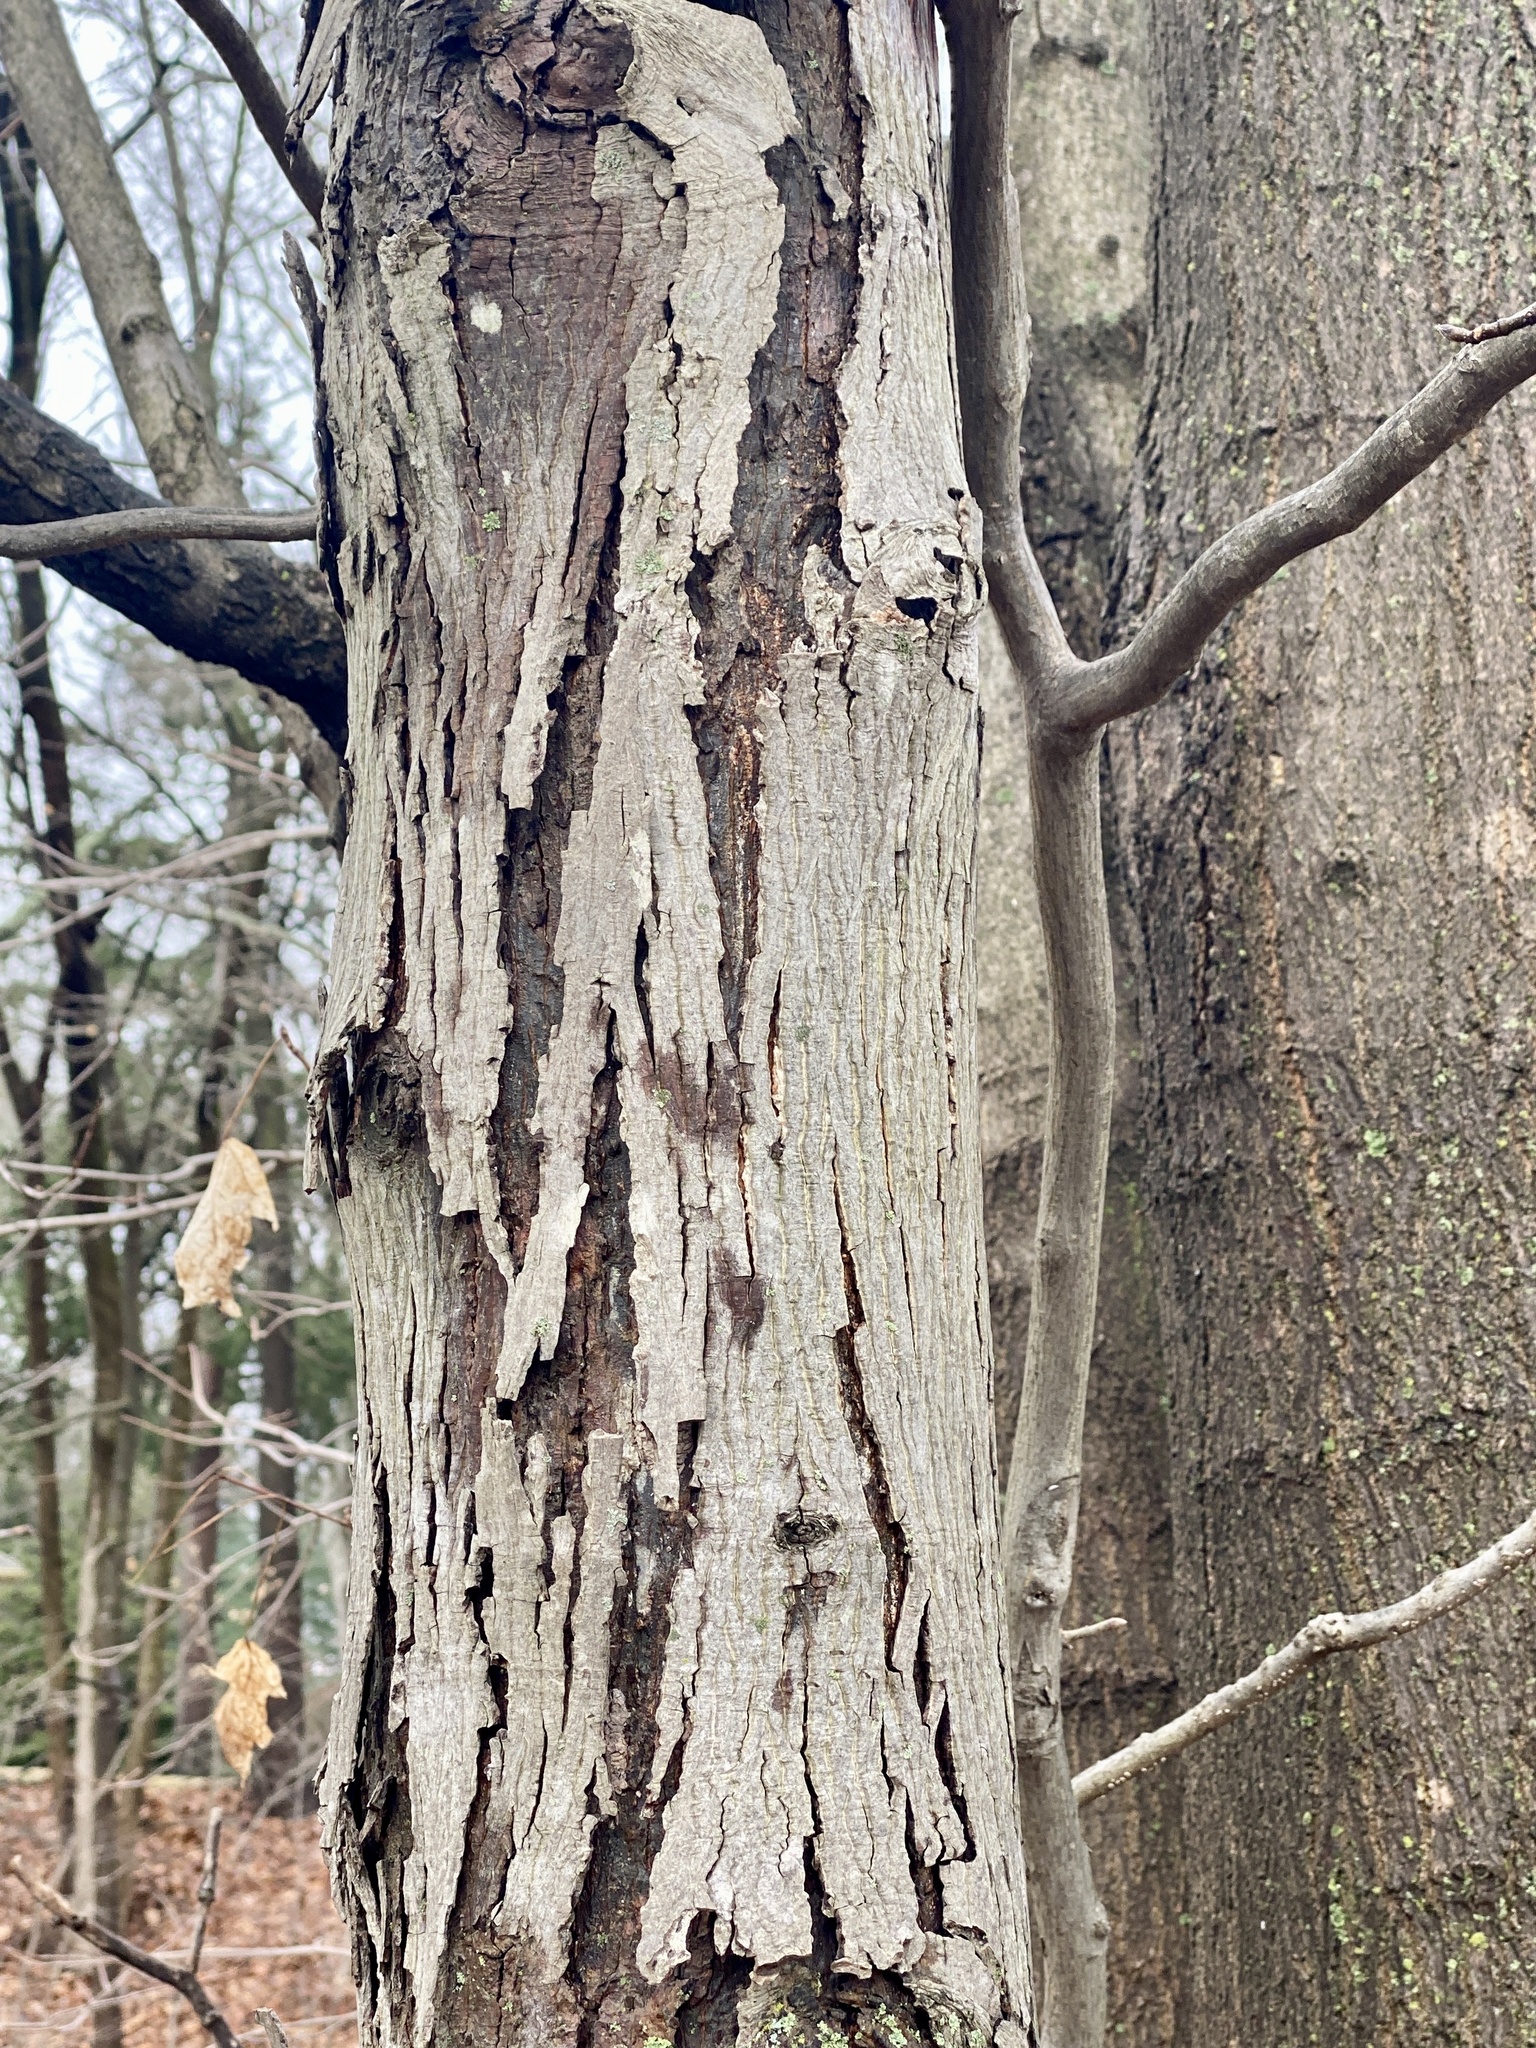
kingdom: Plantae
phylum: Tracheophyta
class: Magnoliopsida
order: Fagales
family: Juglandaceae
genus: Carya
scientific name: Carya ovata
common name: Shagbark hickory
